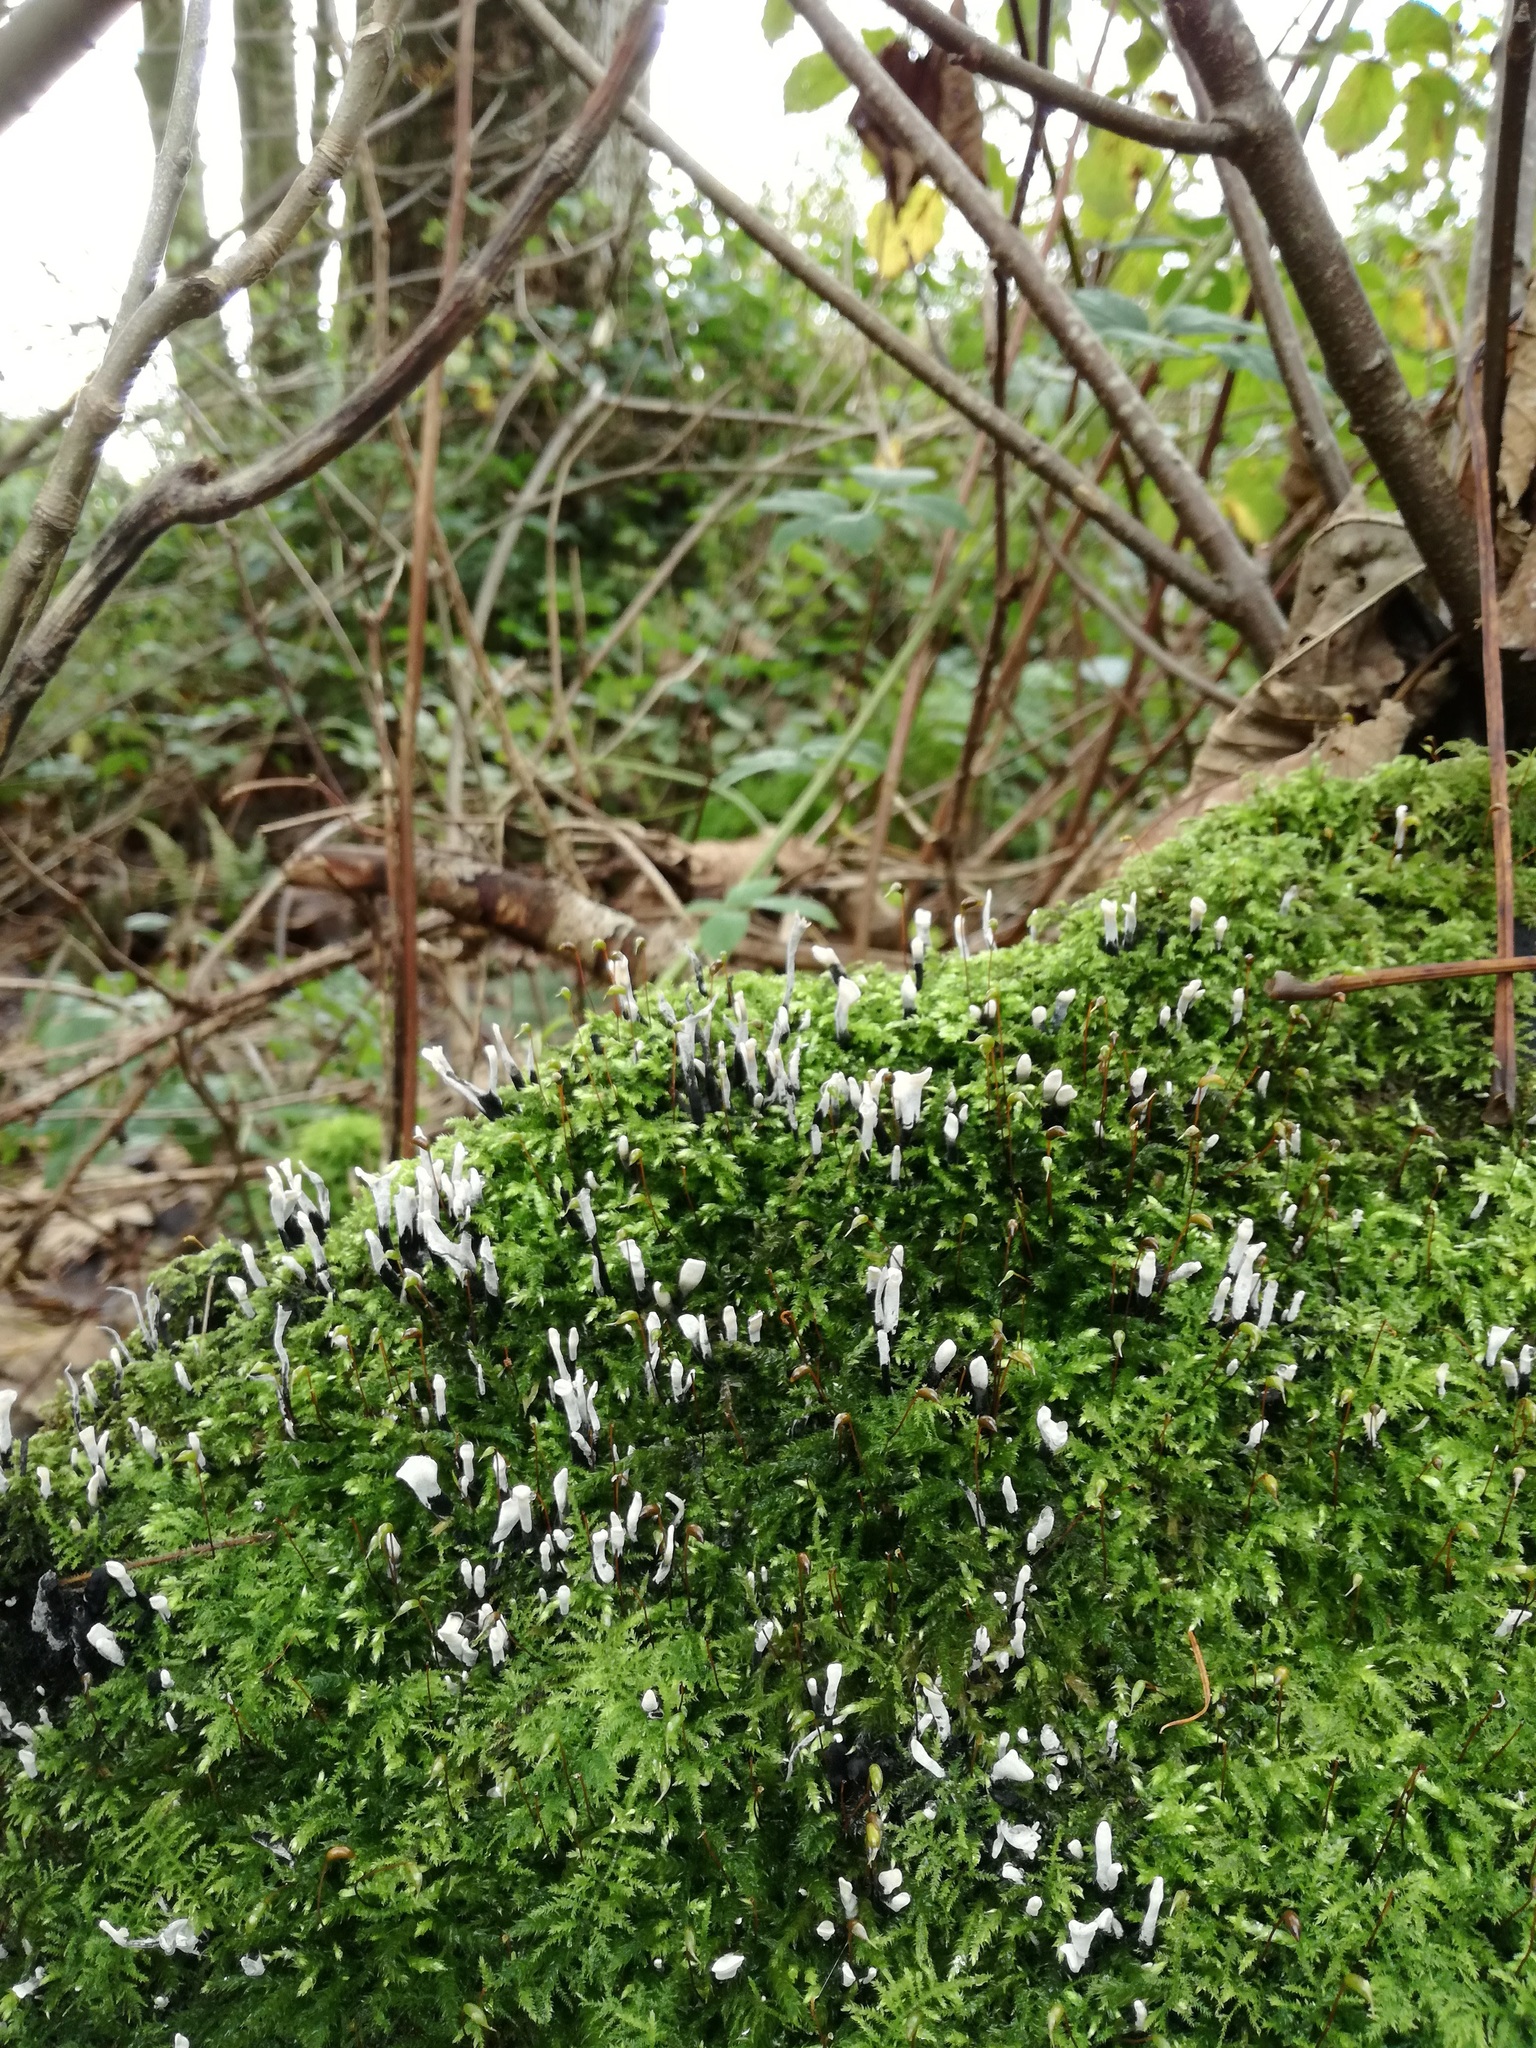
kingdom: Fungi
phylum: Ascomycota
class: Sordariomycetes
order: Xylariales
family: Xylariaceae
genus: Xylaria
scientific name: Xylaria hypoxylon
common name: Candle-snuff fungus
